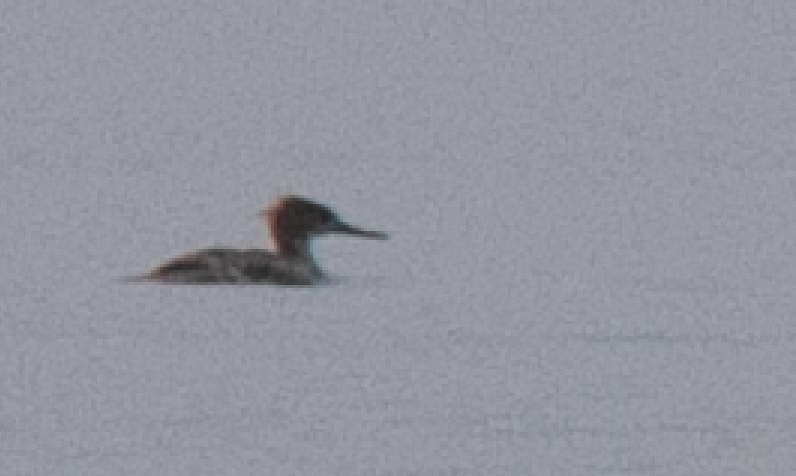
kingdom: Animalia
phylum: Chordata
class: Aves
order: Anseriformes
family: Anatidae
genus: Mergus
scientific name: Mergus serrator
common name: Red-breasted merganser
